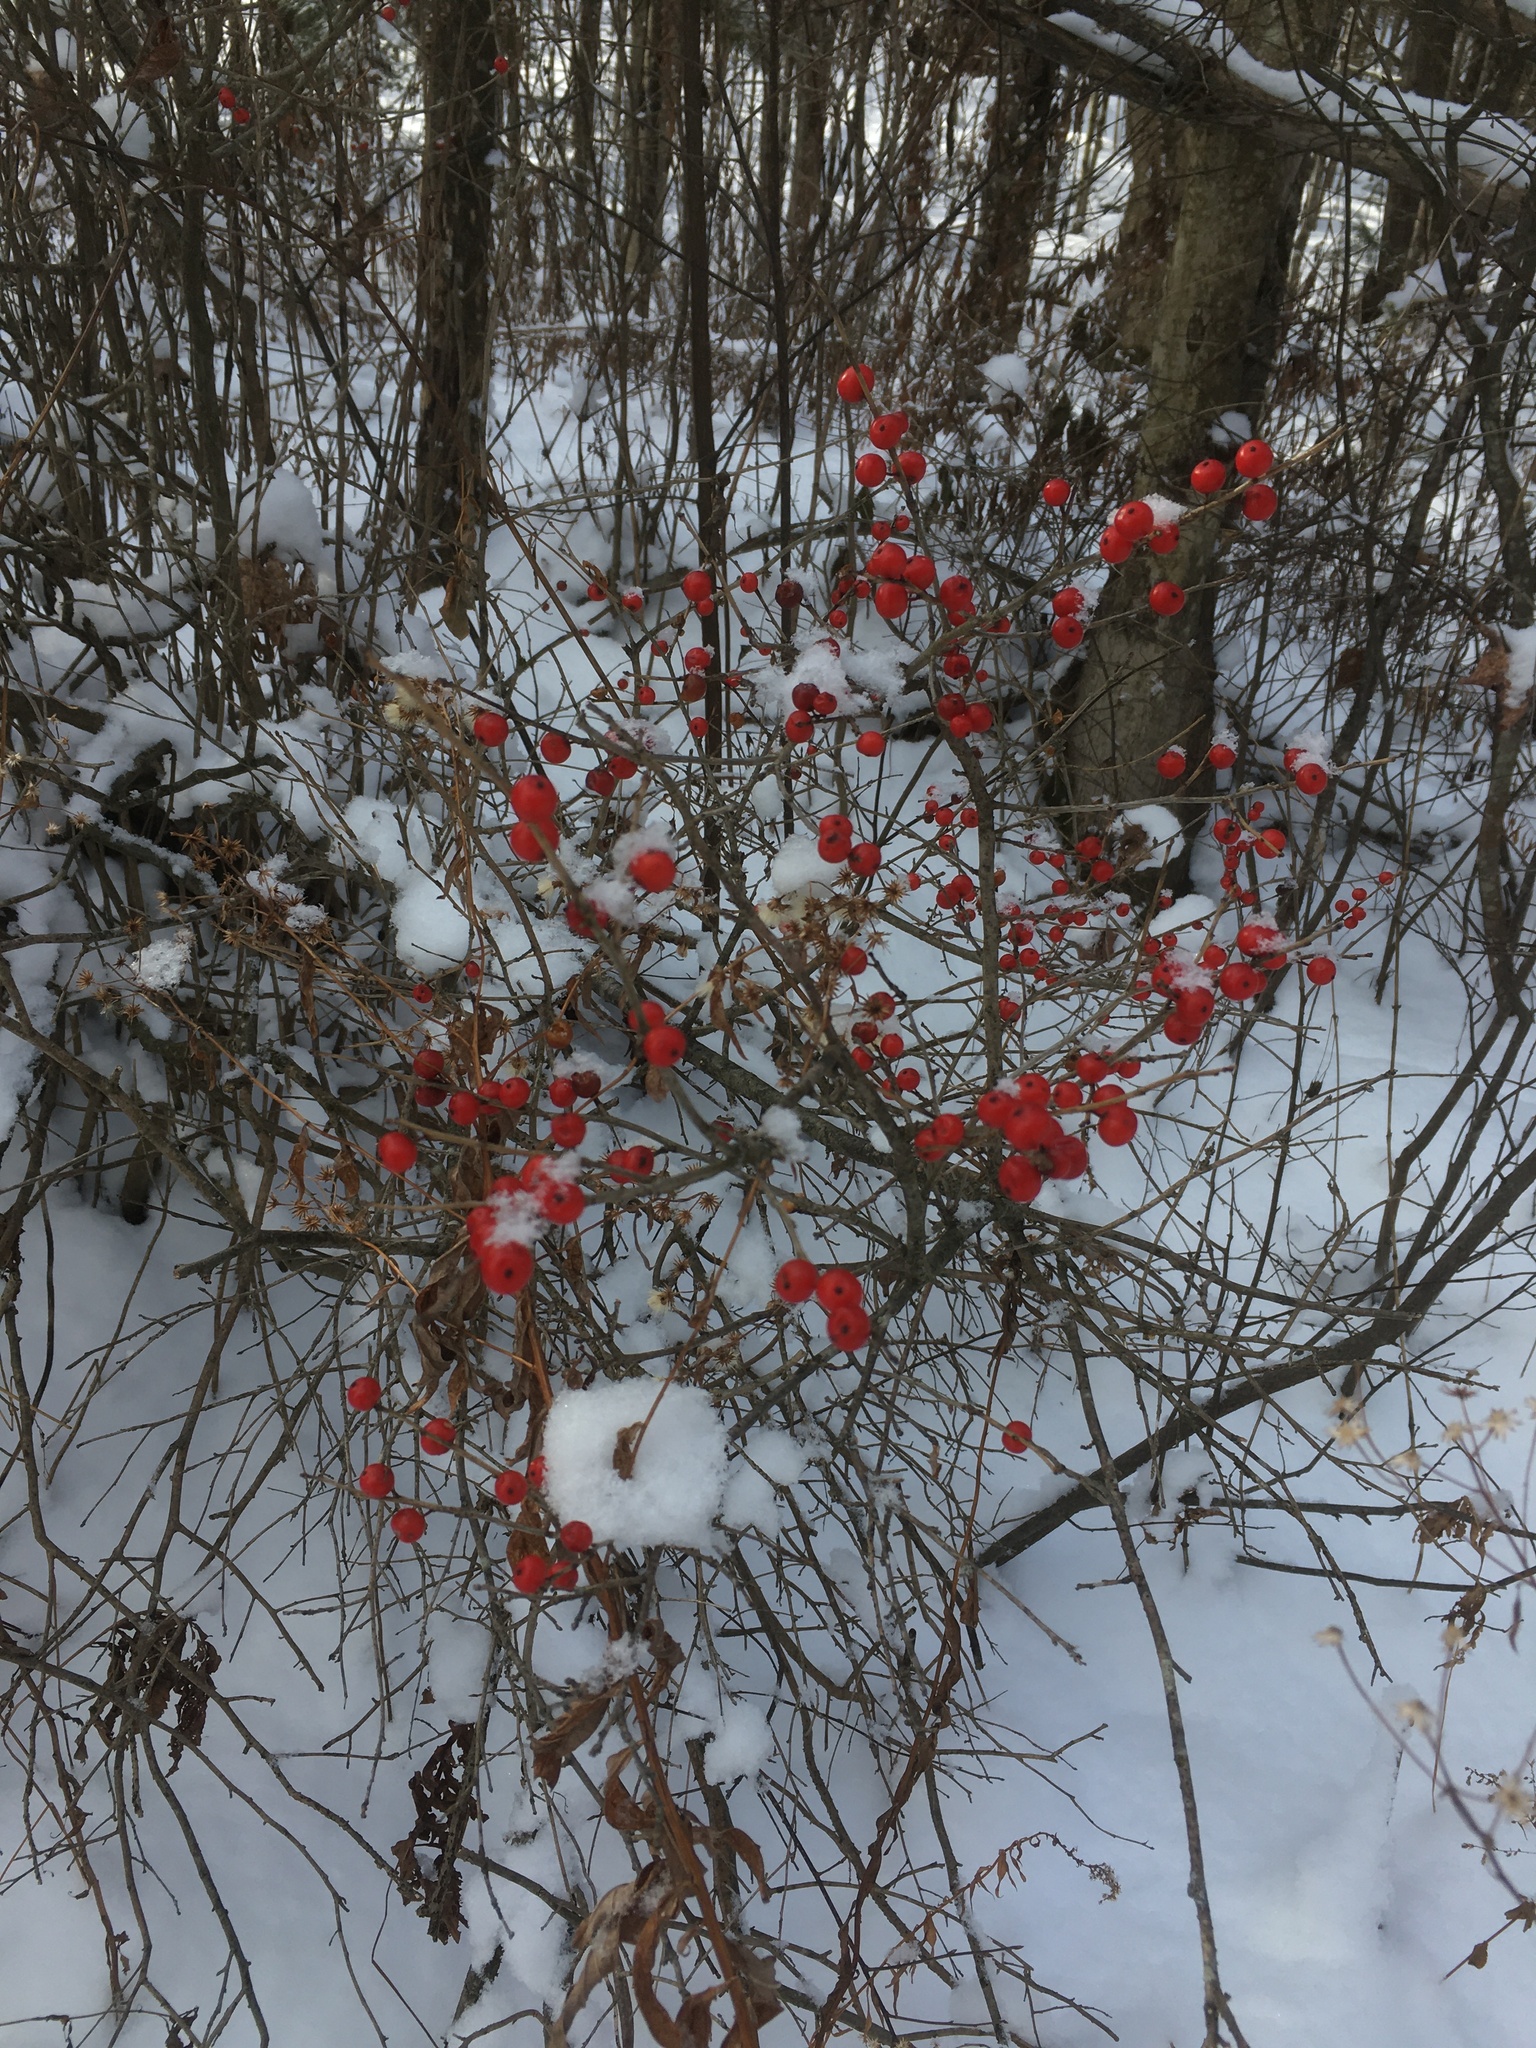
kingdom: Plantae
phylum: Tracheophyta
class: Magnoliopsida
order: Aquifoliales
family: Aquifoliaceae
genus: Ilex
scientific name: Ilex verticillata
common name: Virginia winterberry
